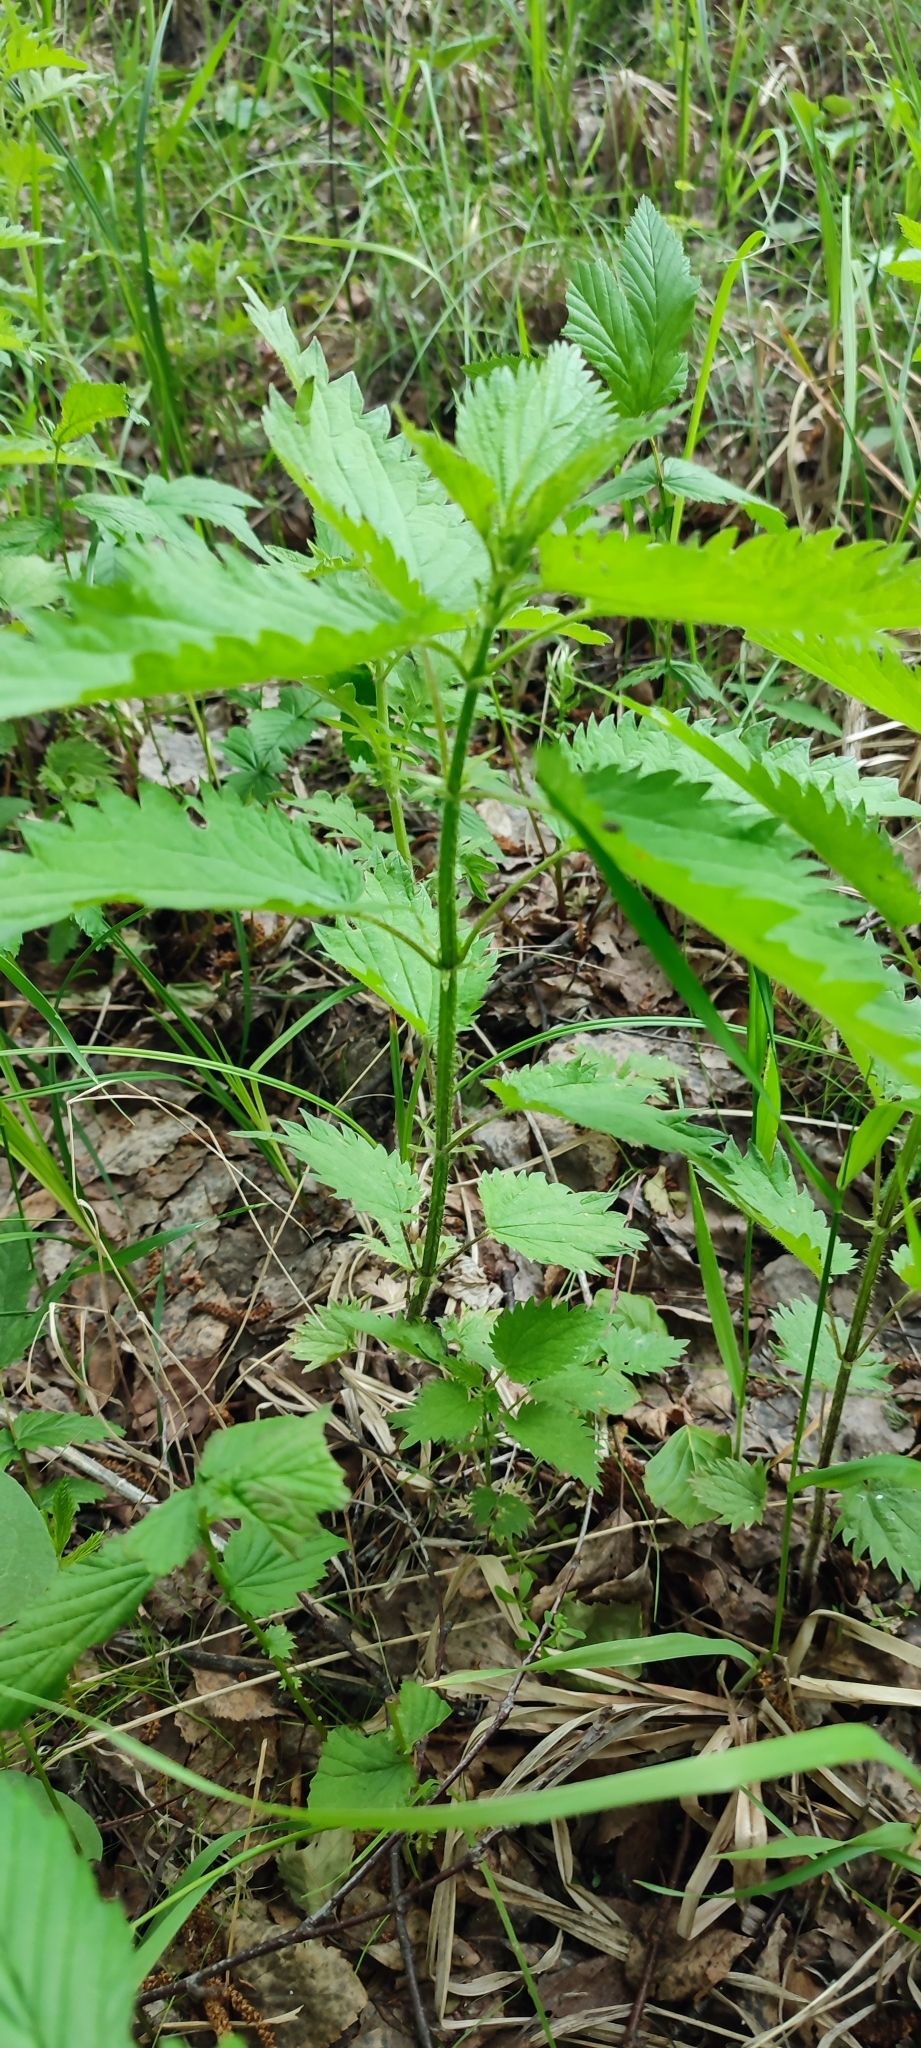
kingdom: Plantae
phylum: Tracheophyta
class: Magnoliopsida
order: Rosales
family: Urticaceae
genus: Urtica
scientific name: Urtica dioica
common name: Common nettle
